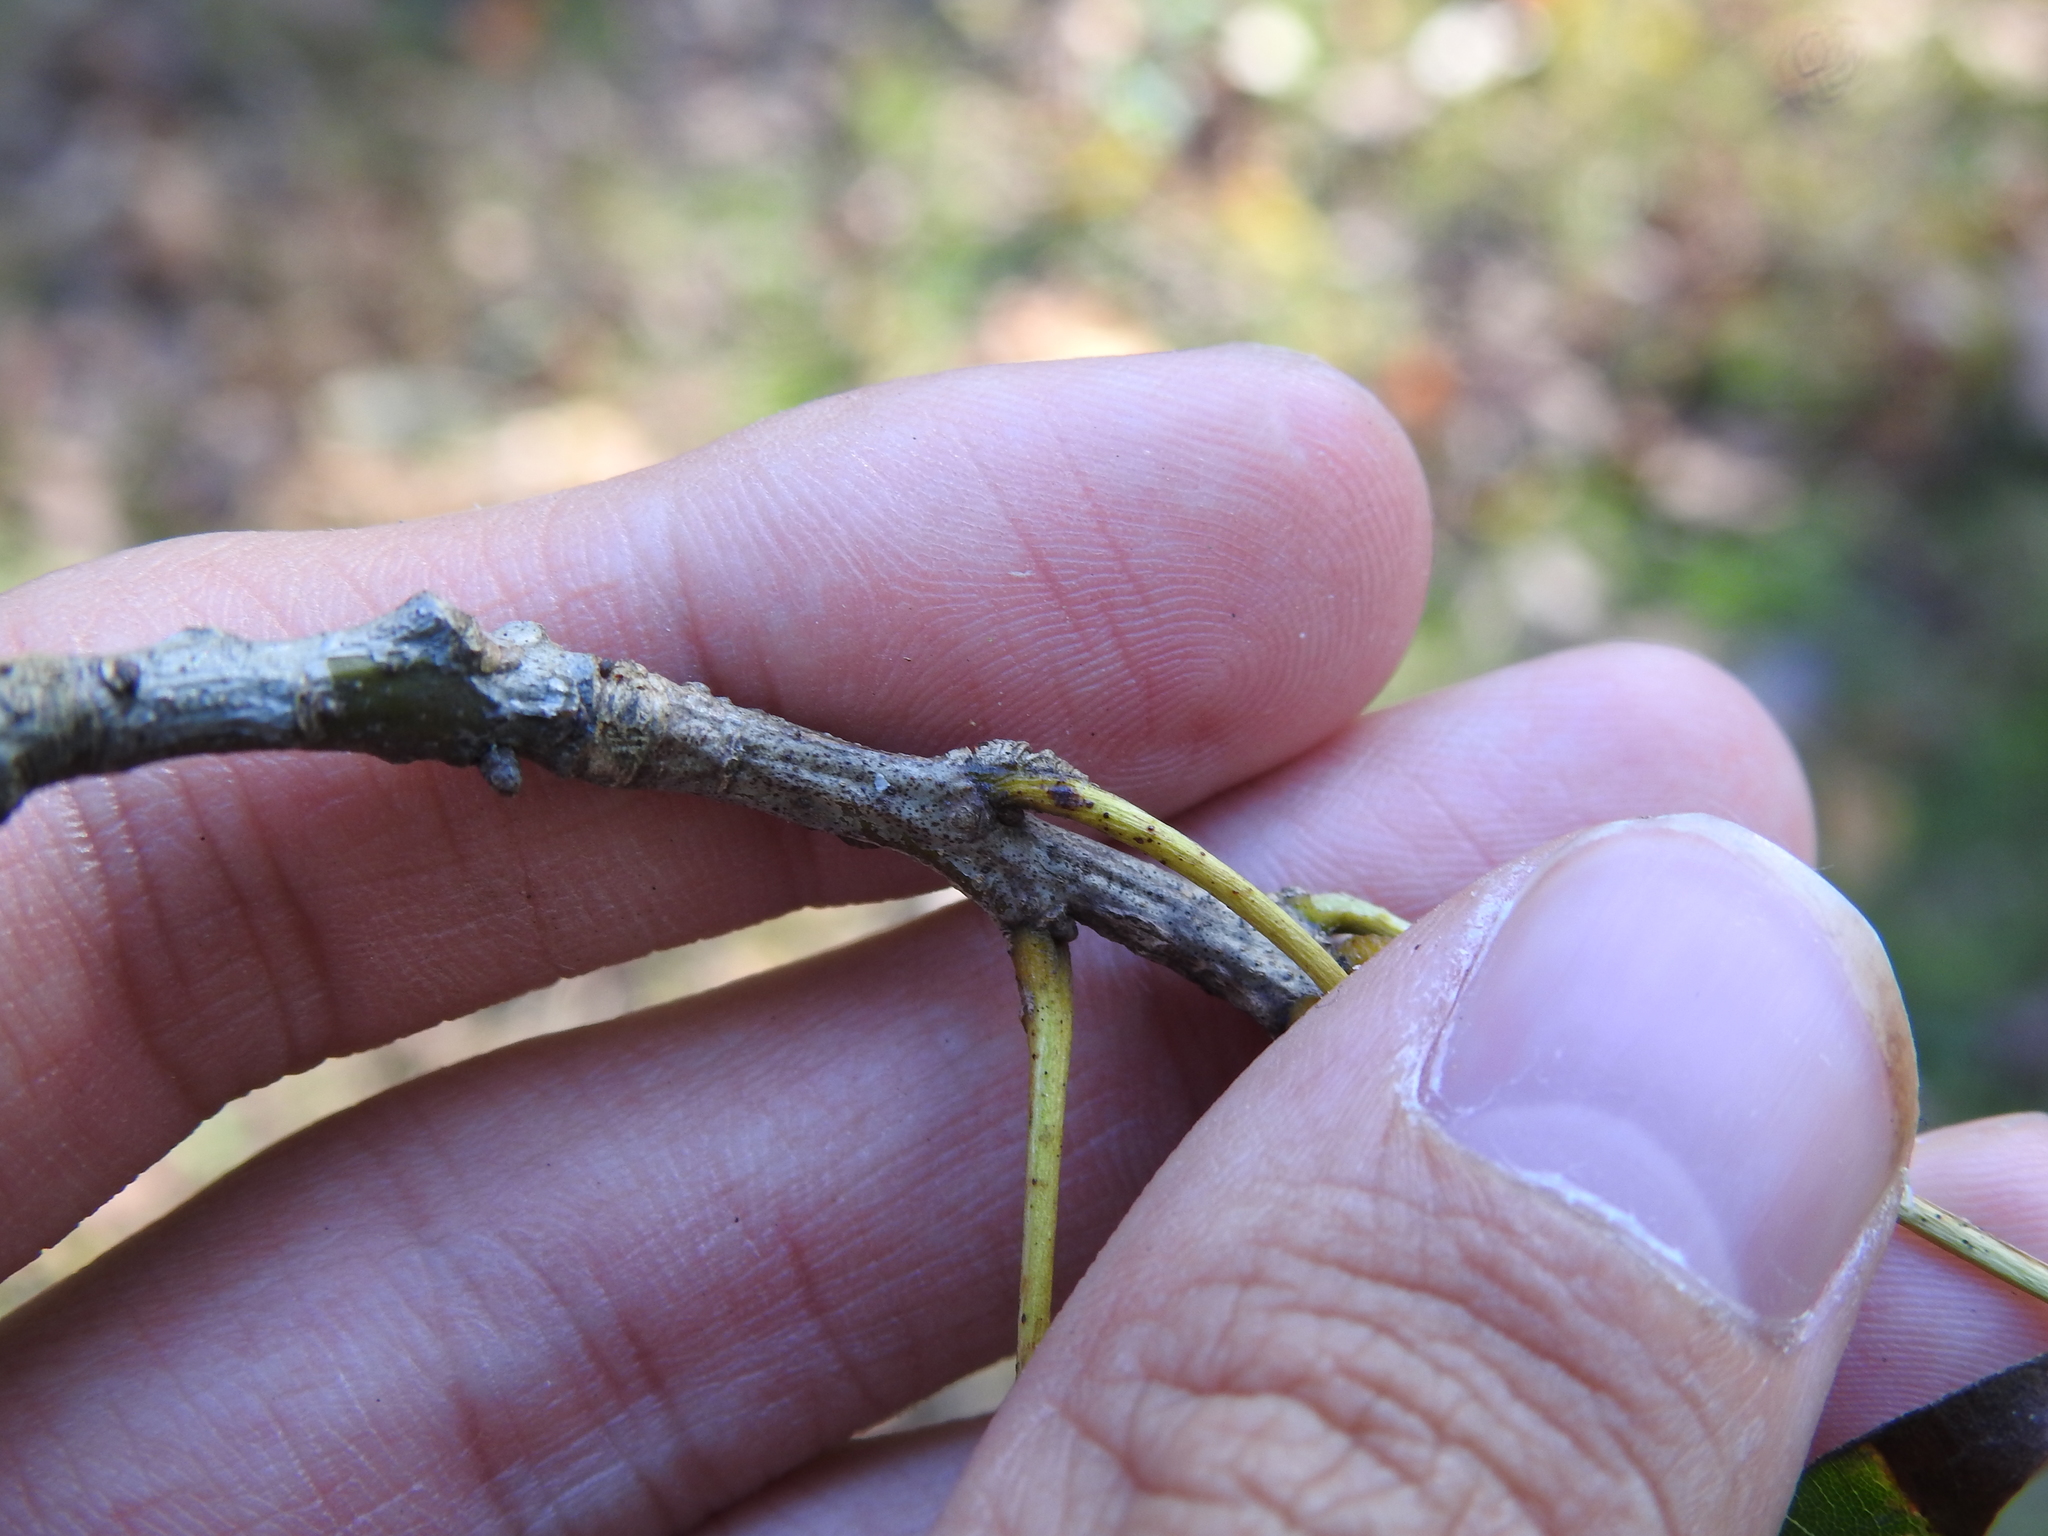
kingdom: Plantae
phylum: Tracheophyta
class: Magnoliopsida
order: Fagales
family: Fagaceae
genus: Quercus
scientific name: Quercus rubra
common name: Red oak
